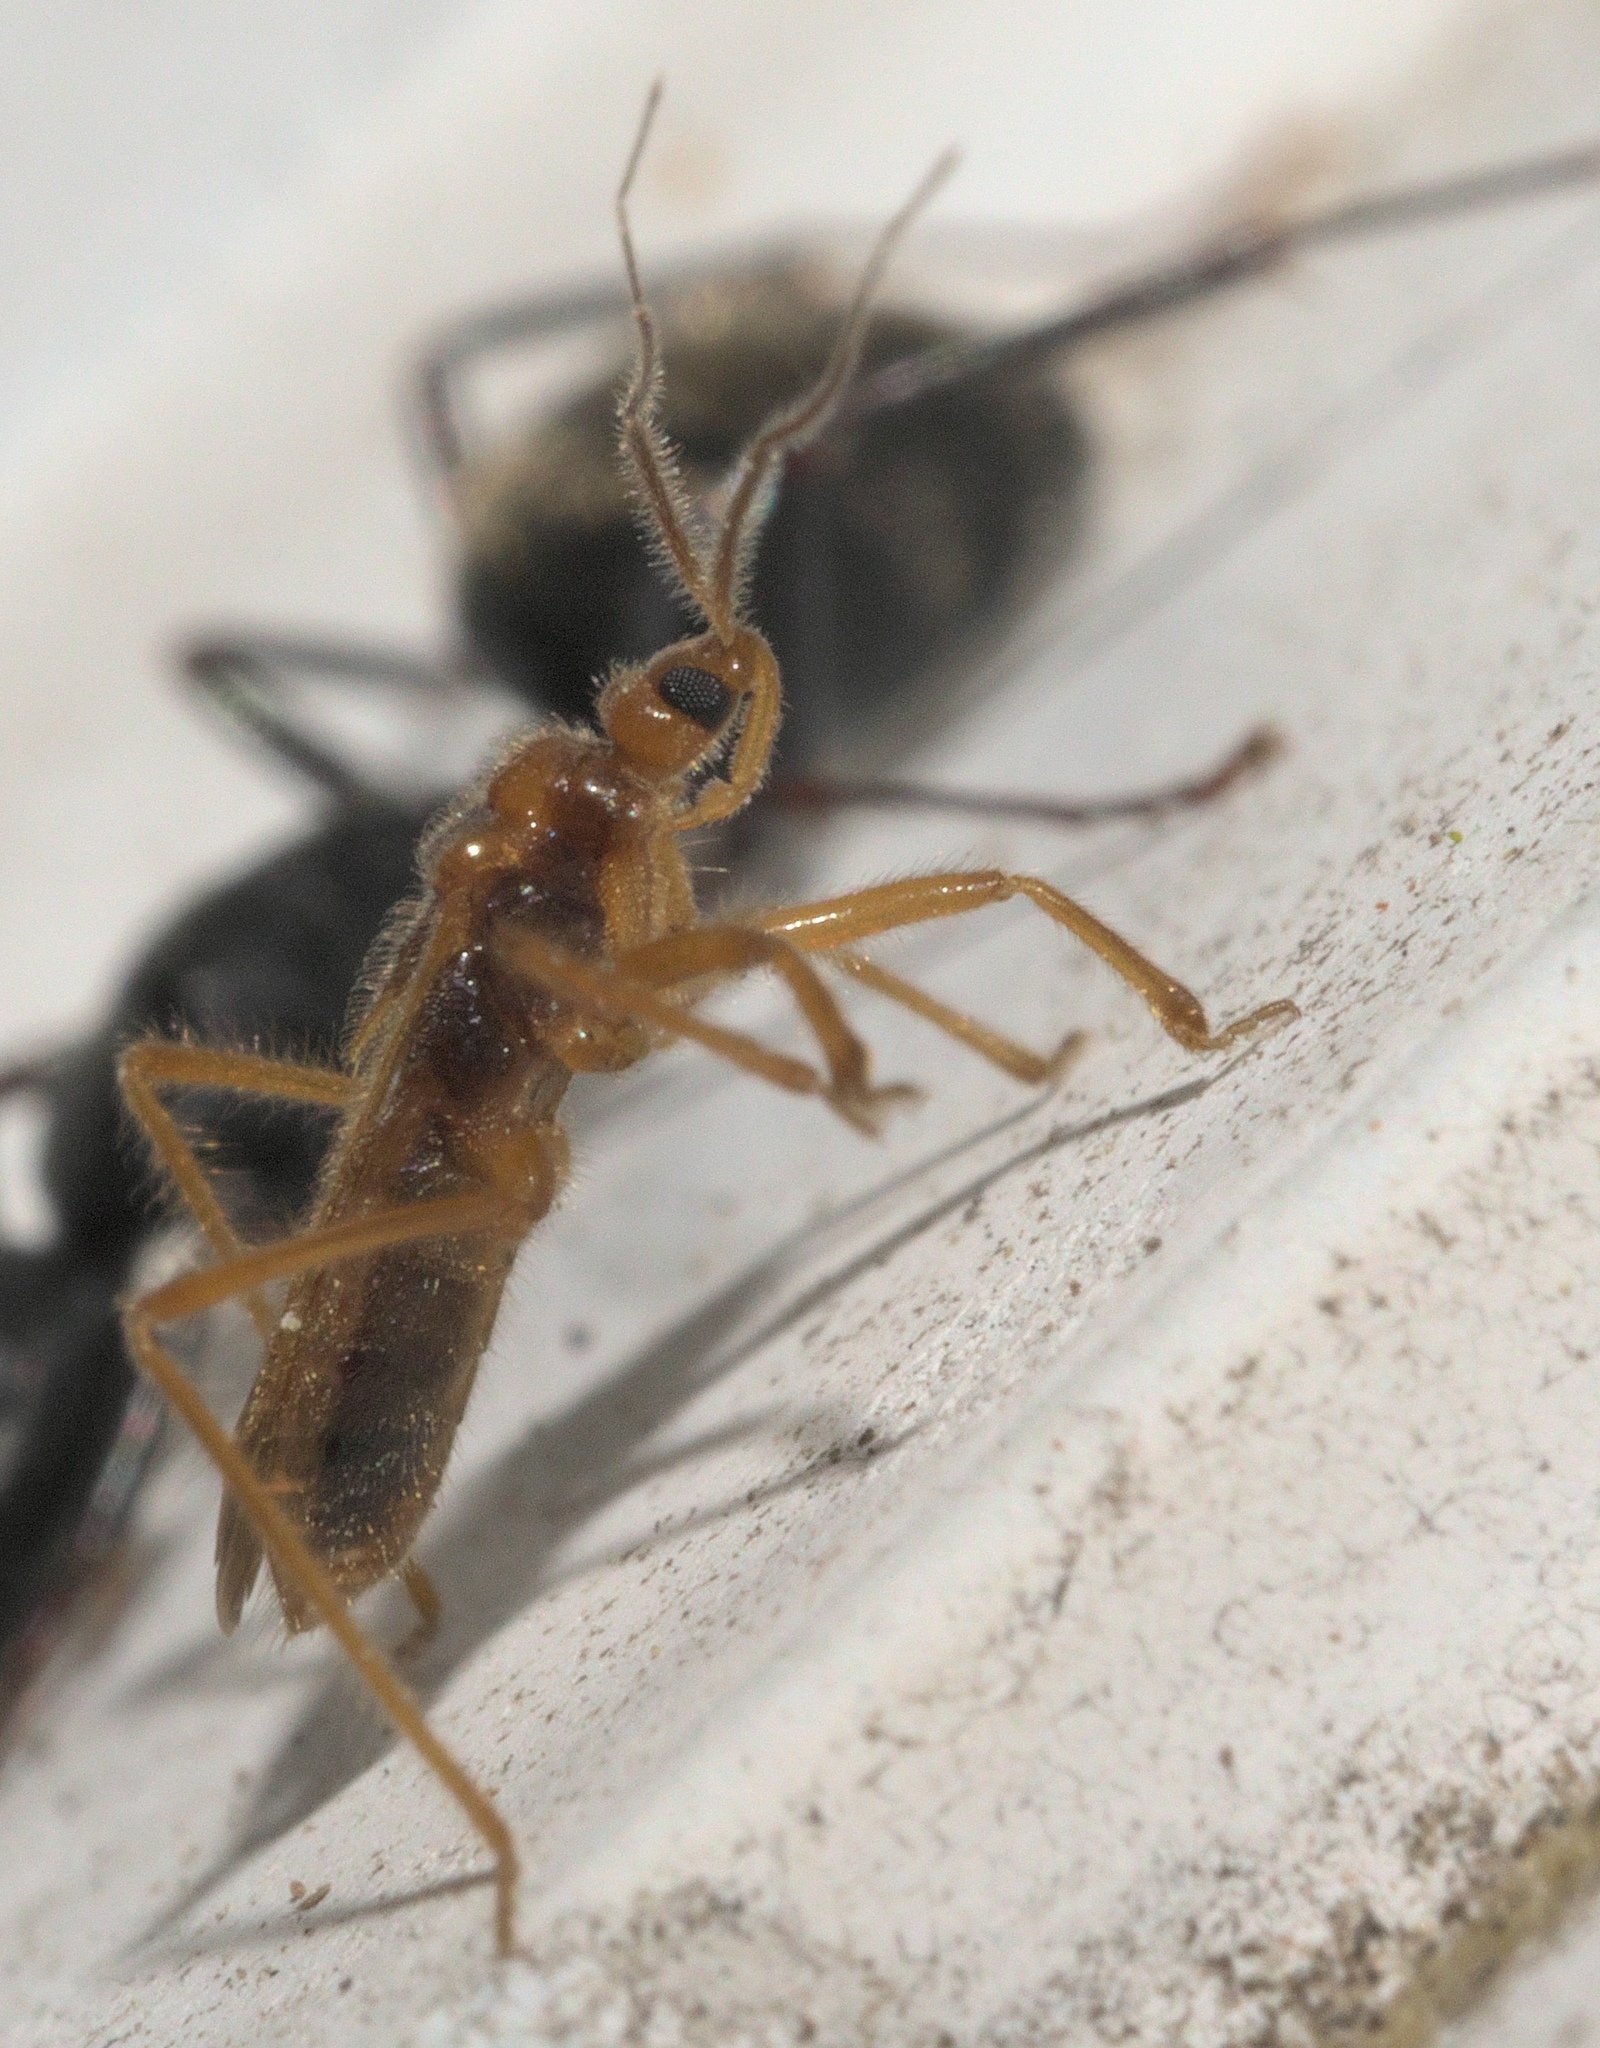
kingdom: Animalia
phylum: Arthropoda
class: Insecta
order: Hemiptera
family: Reduviidae
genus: Oncerotrachelus
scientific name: Oncerotrachelus acuminatus
